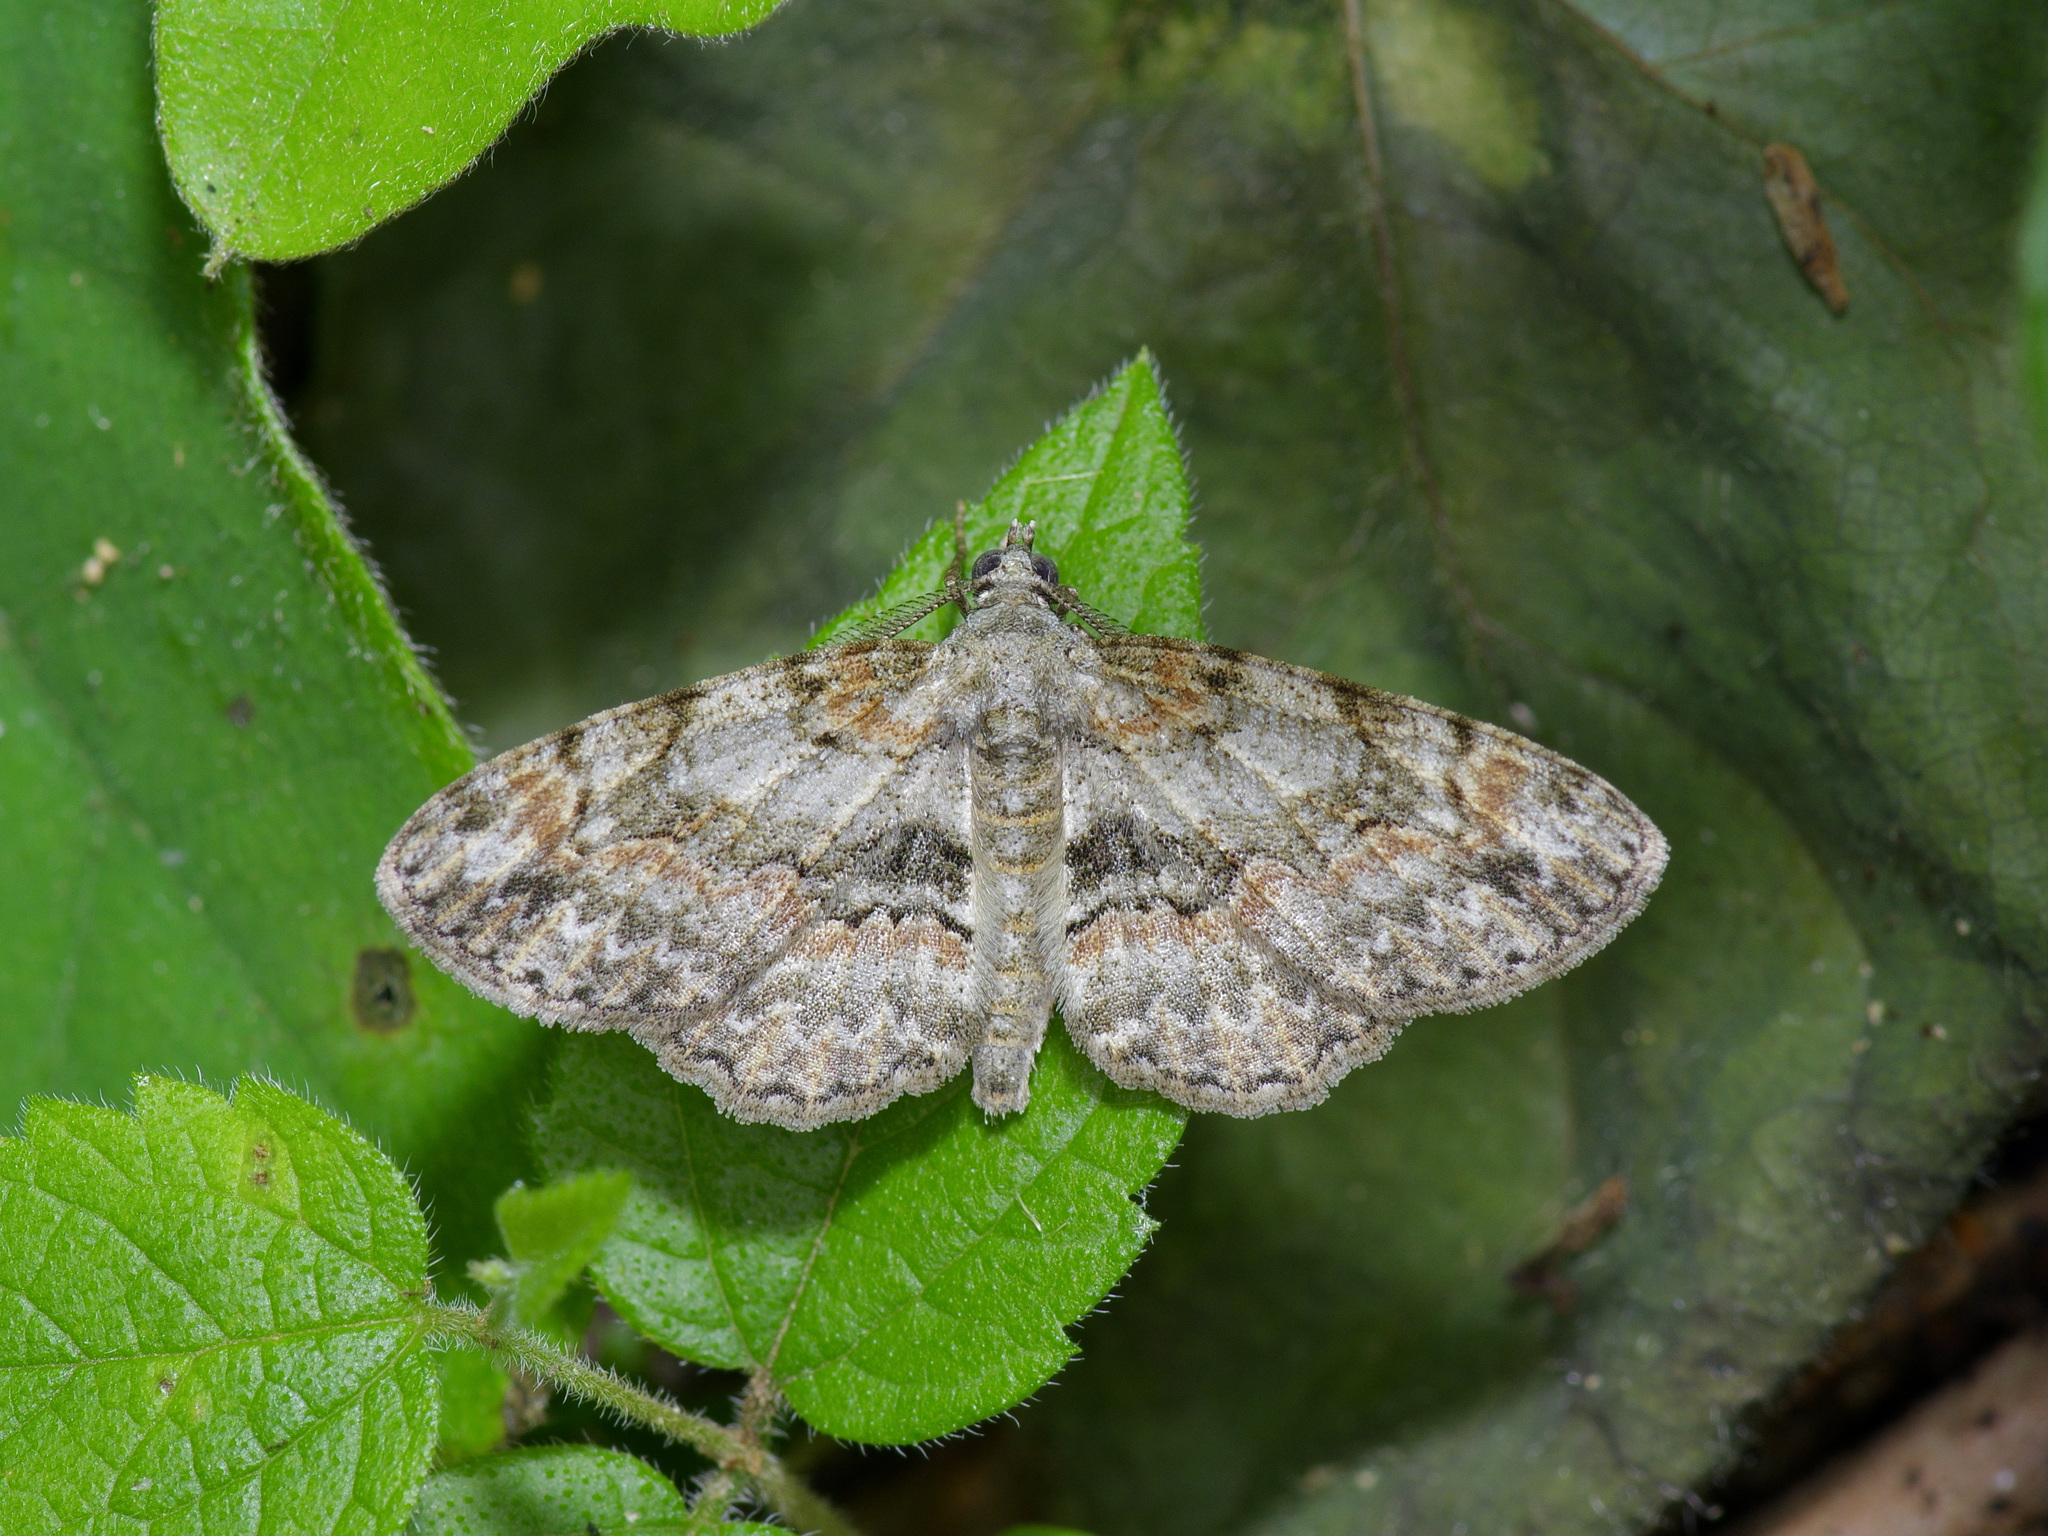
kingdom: Animalia
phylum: Arthropoda
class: Insecta
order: Lepidoptera
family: Geometridae
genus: Iridopsis
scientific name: Iridopsis ephyraria
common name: Pale-winged gray
